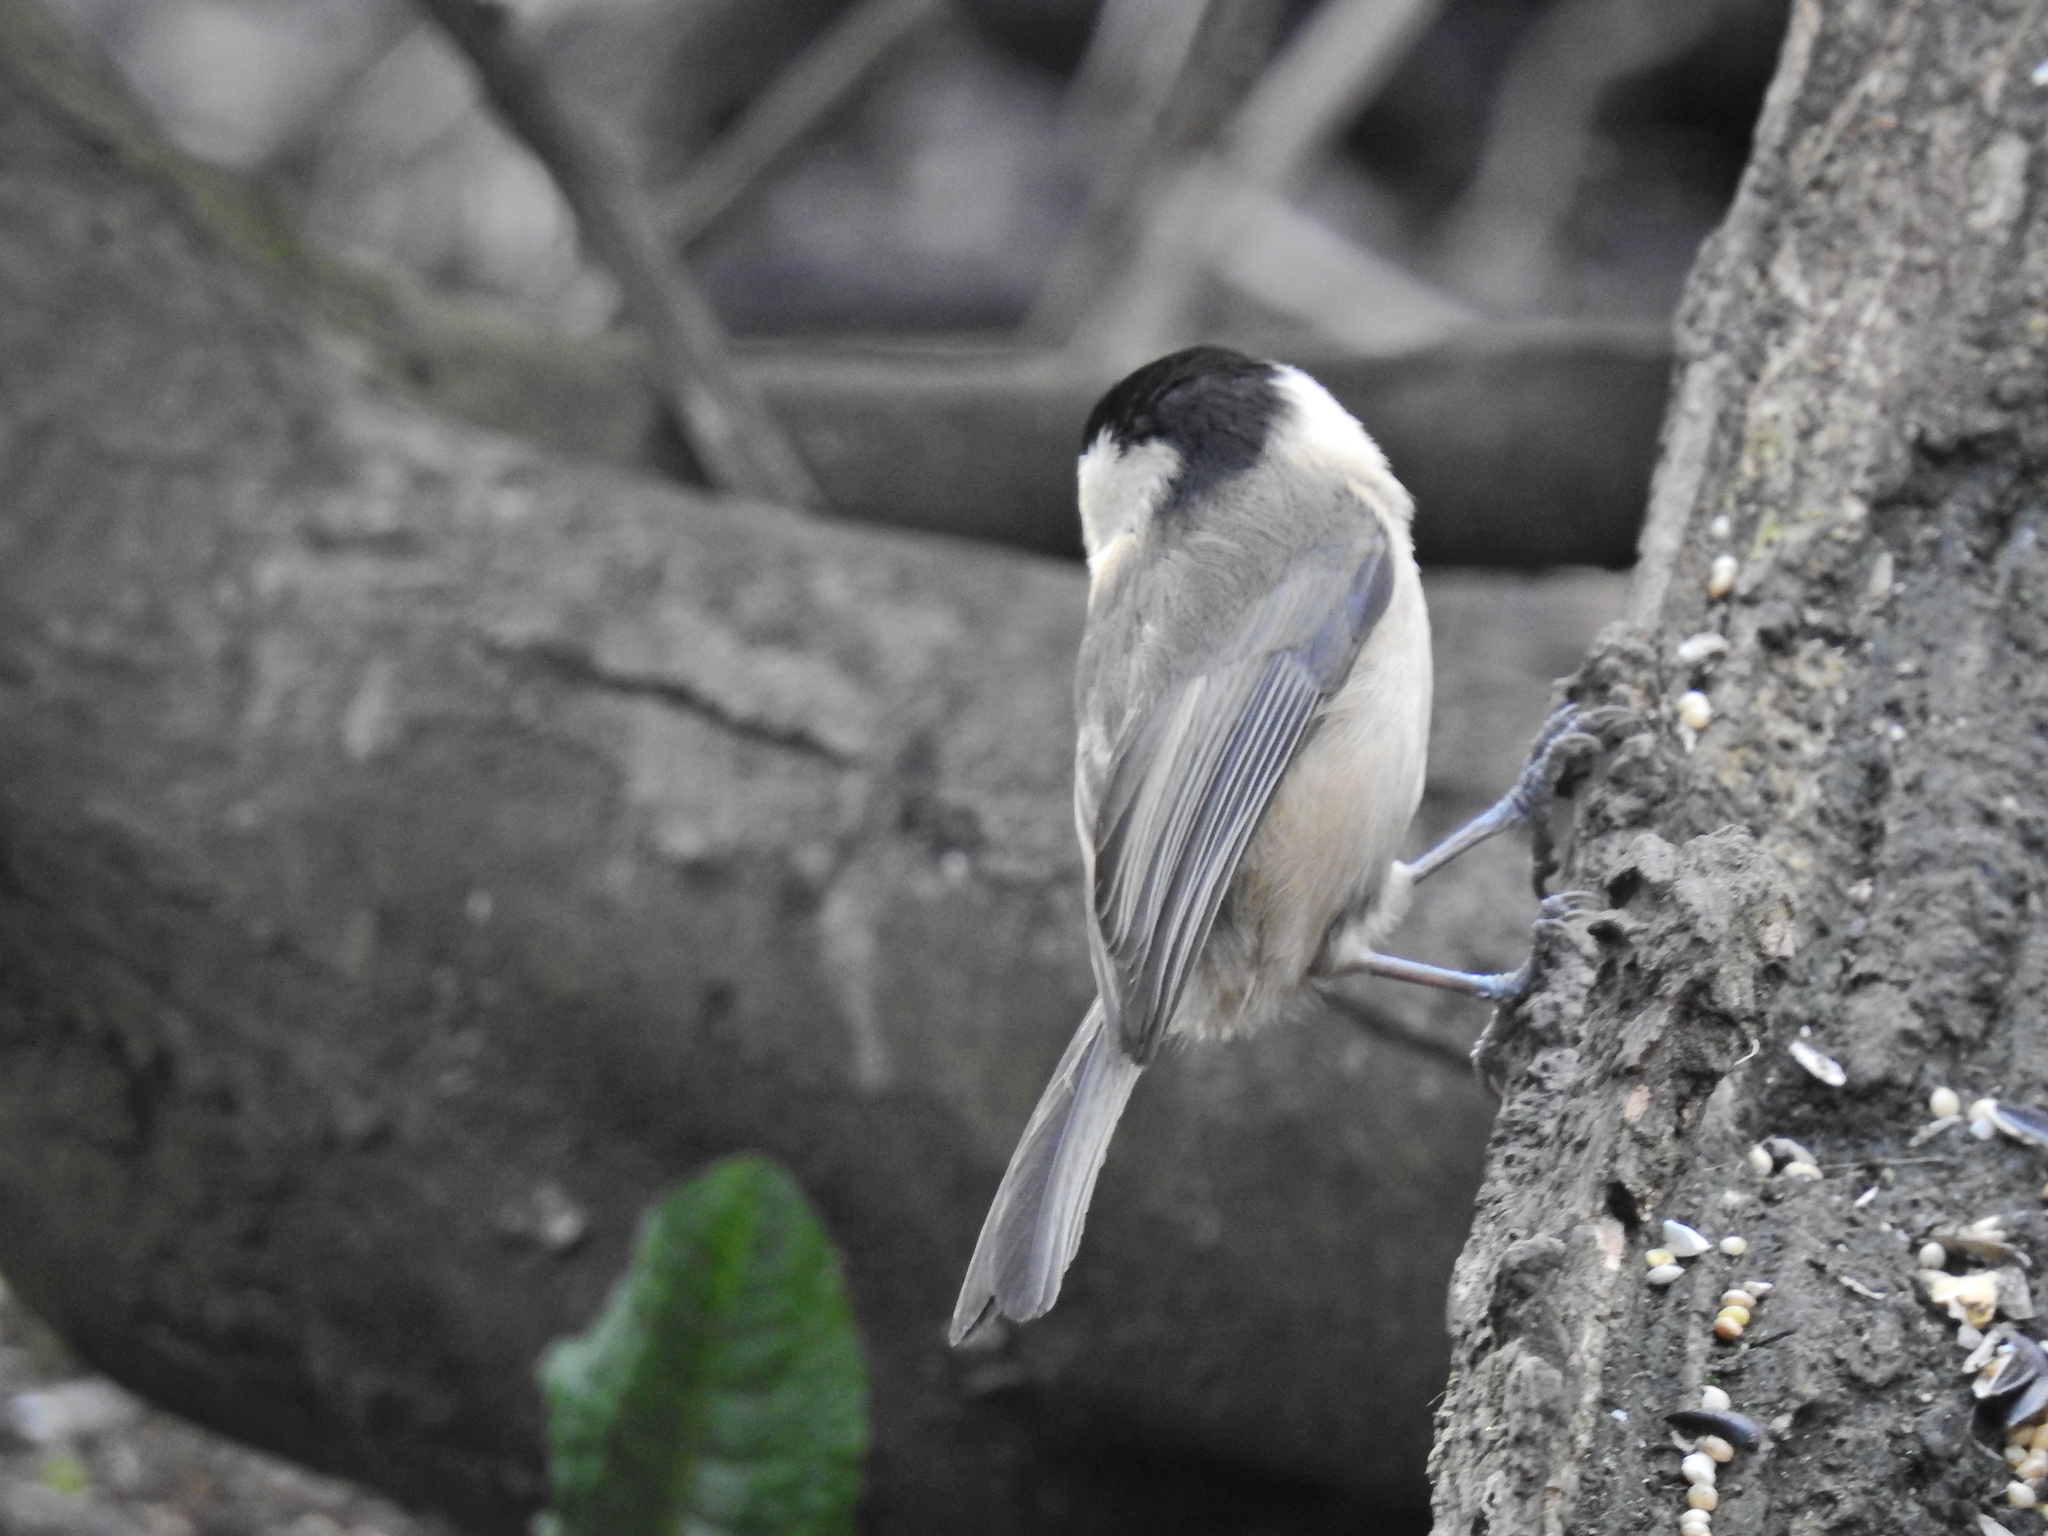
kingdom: Animalia
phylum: Chordata
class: Aves
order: Passeriformes
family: Paridae
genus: Poecile
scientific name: Poecile montanus
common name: Willow tit
